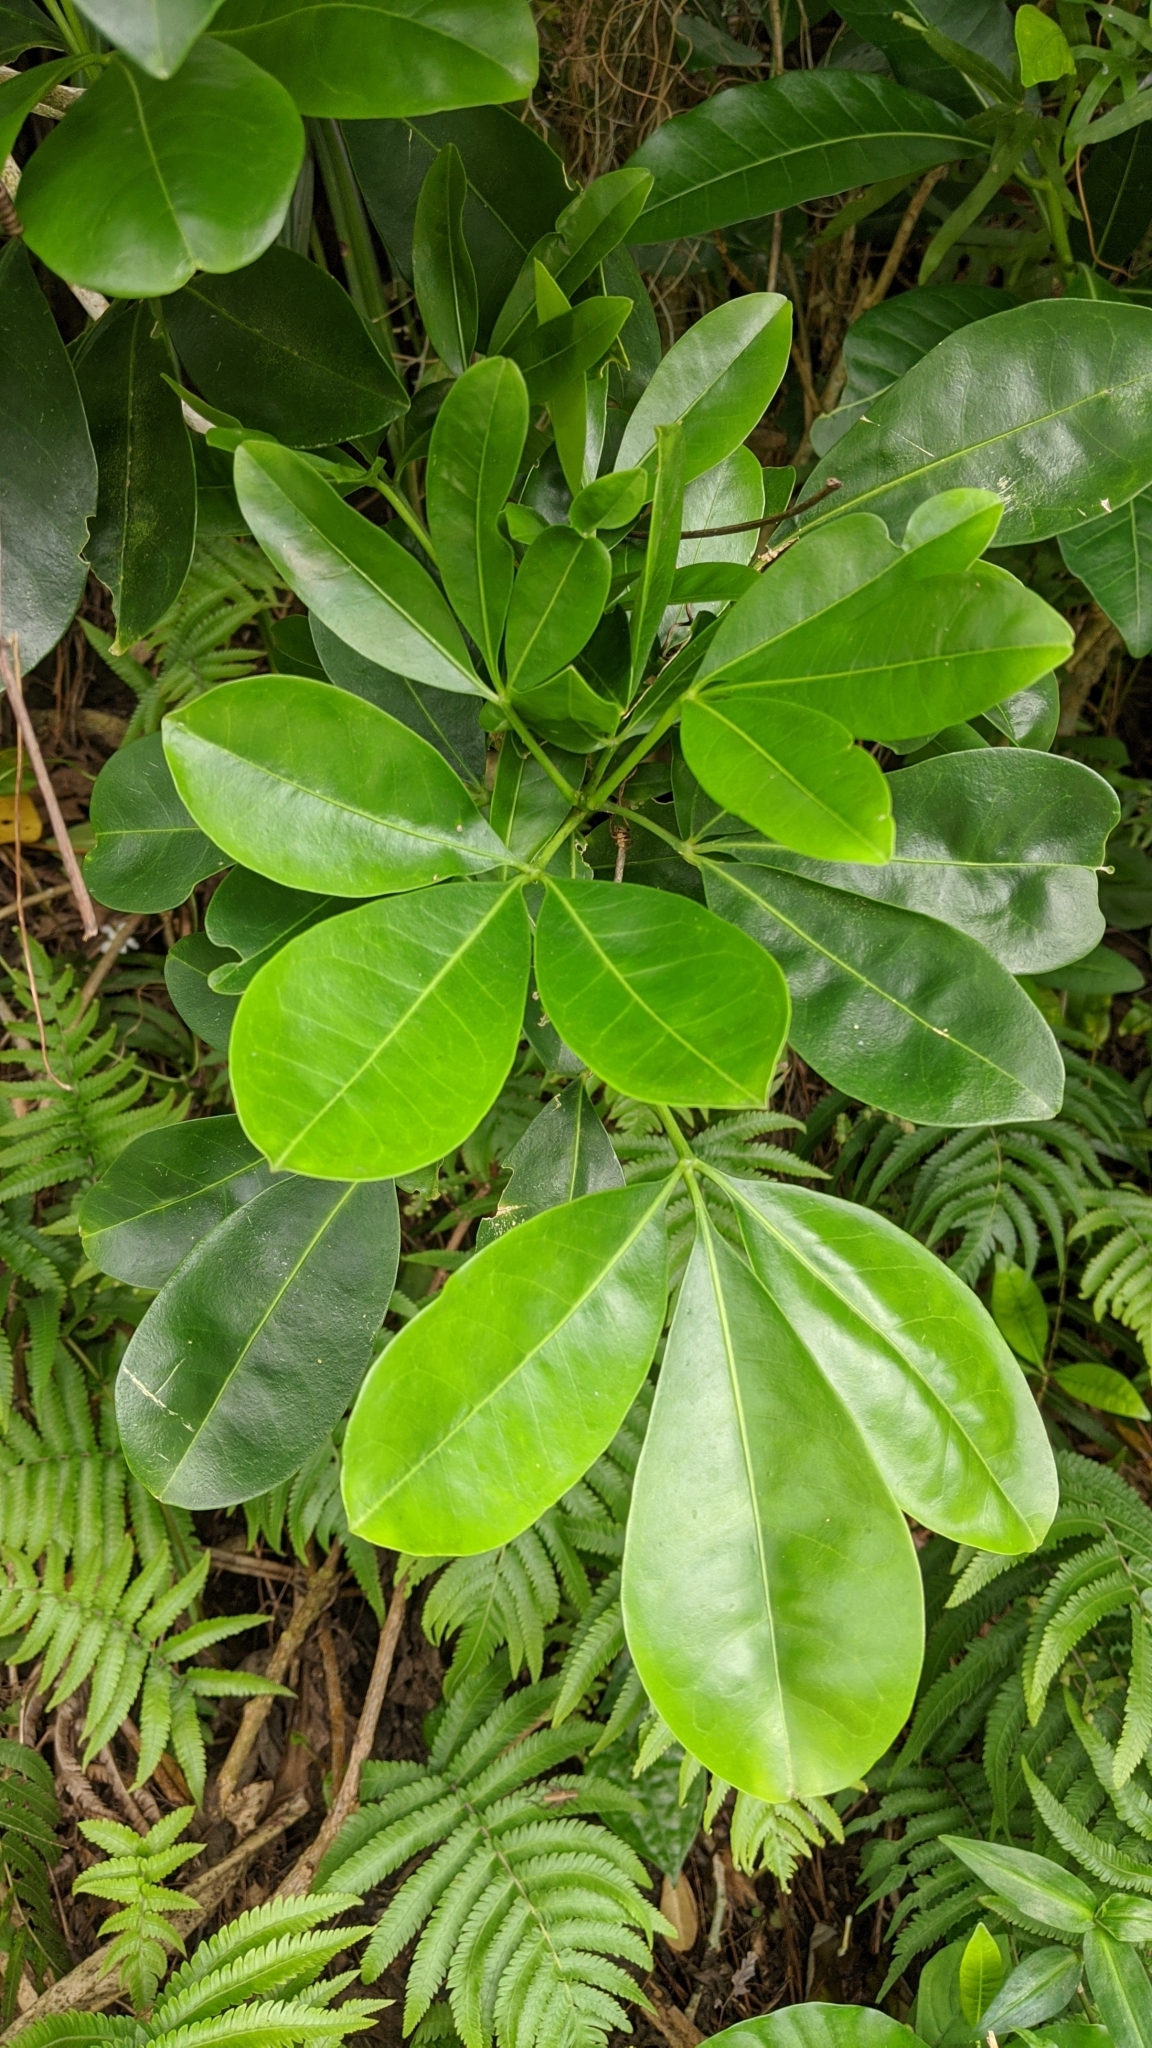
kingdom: Plantae
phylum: Tracheophyta
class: Magnoliopsida
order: Sapindales
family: Rutaceae
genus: Melicope
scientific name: Melicope triphylla
